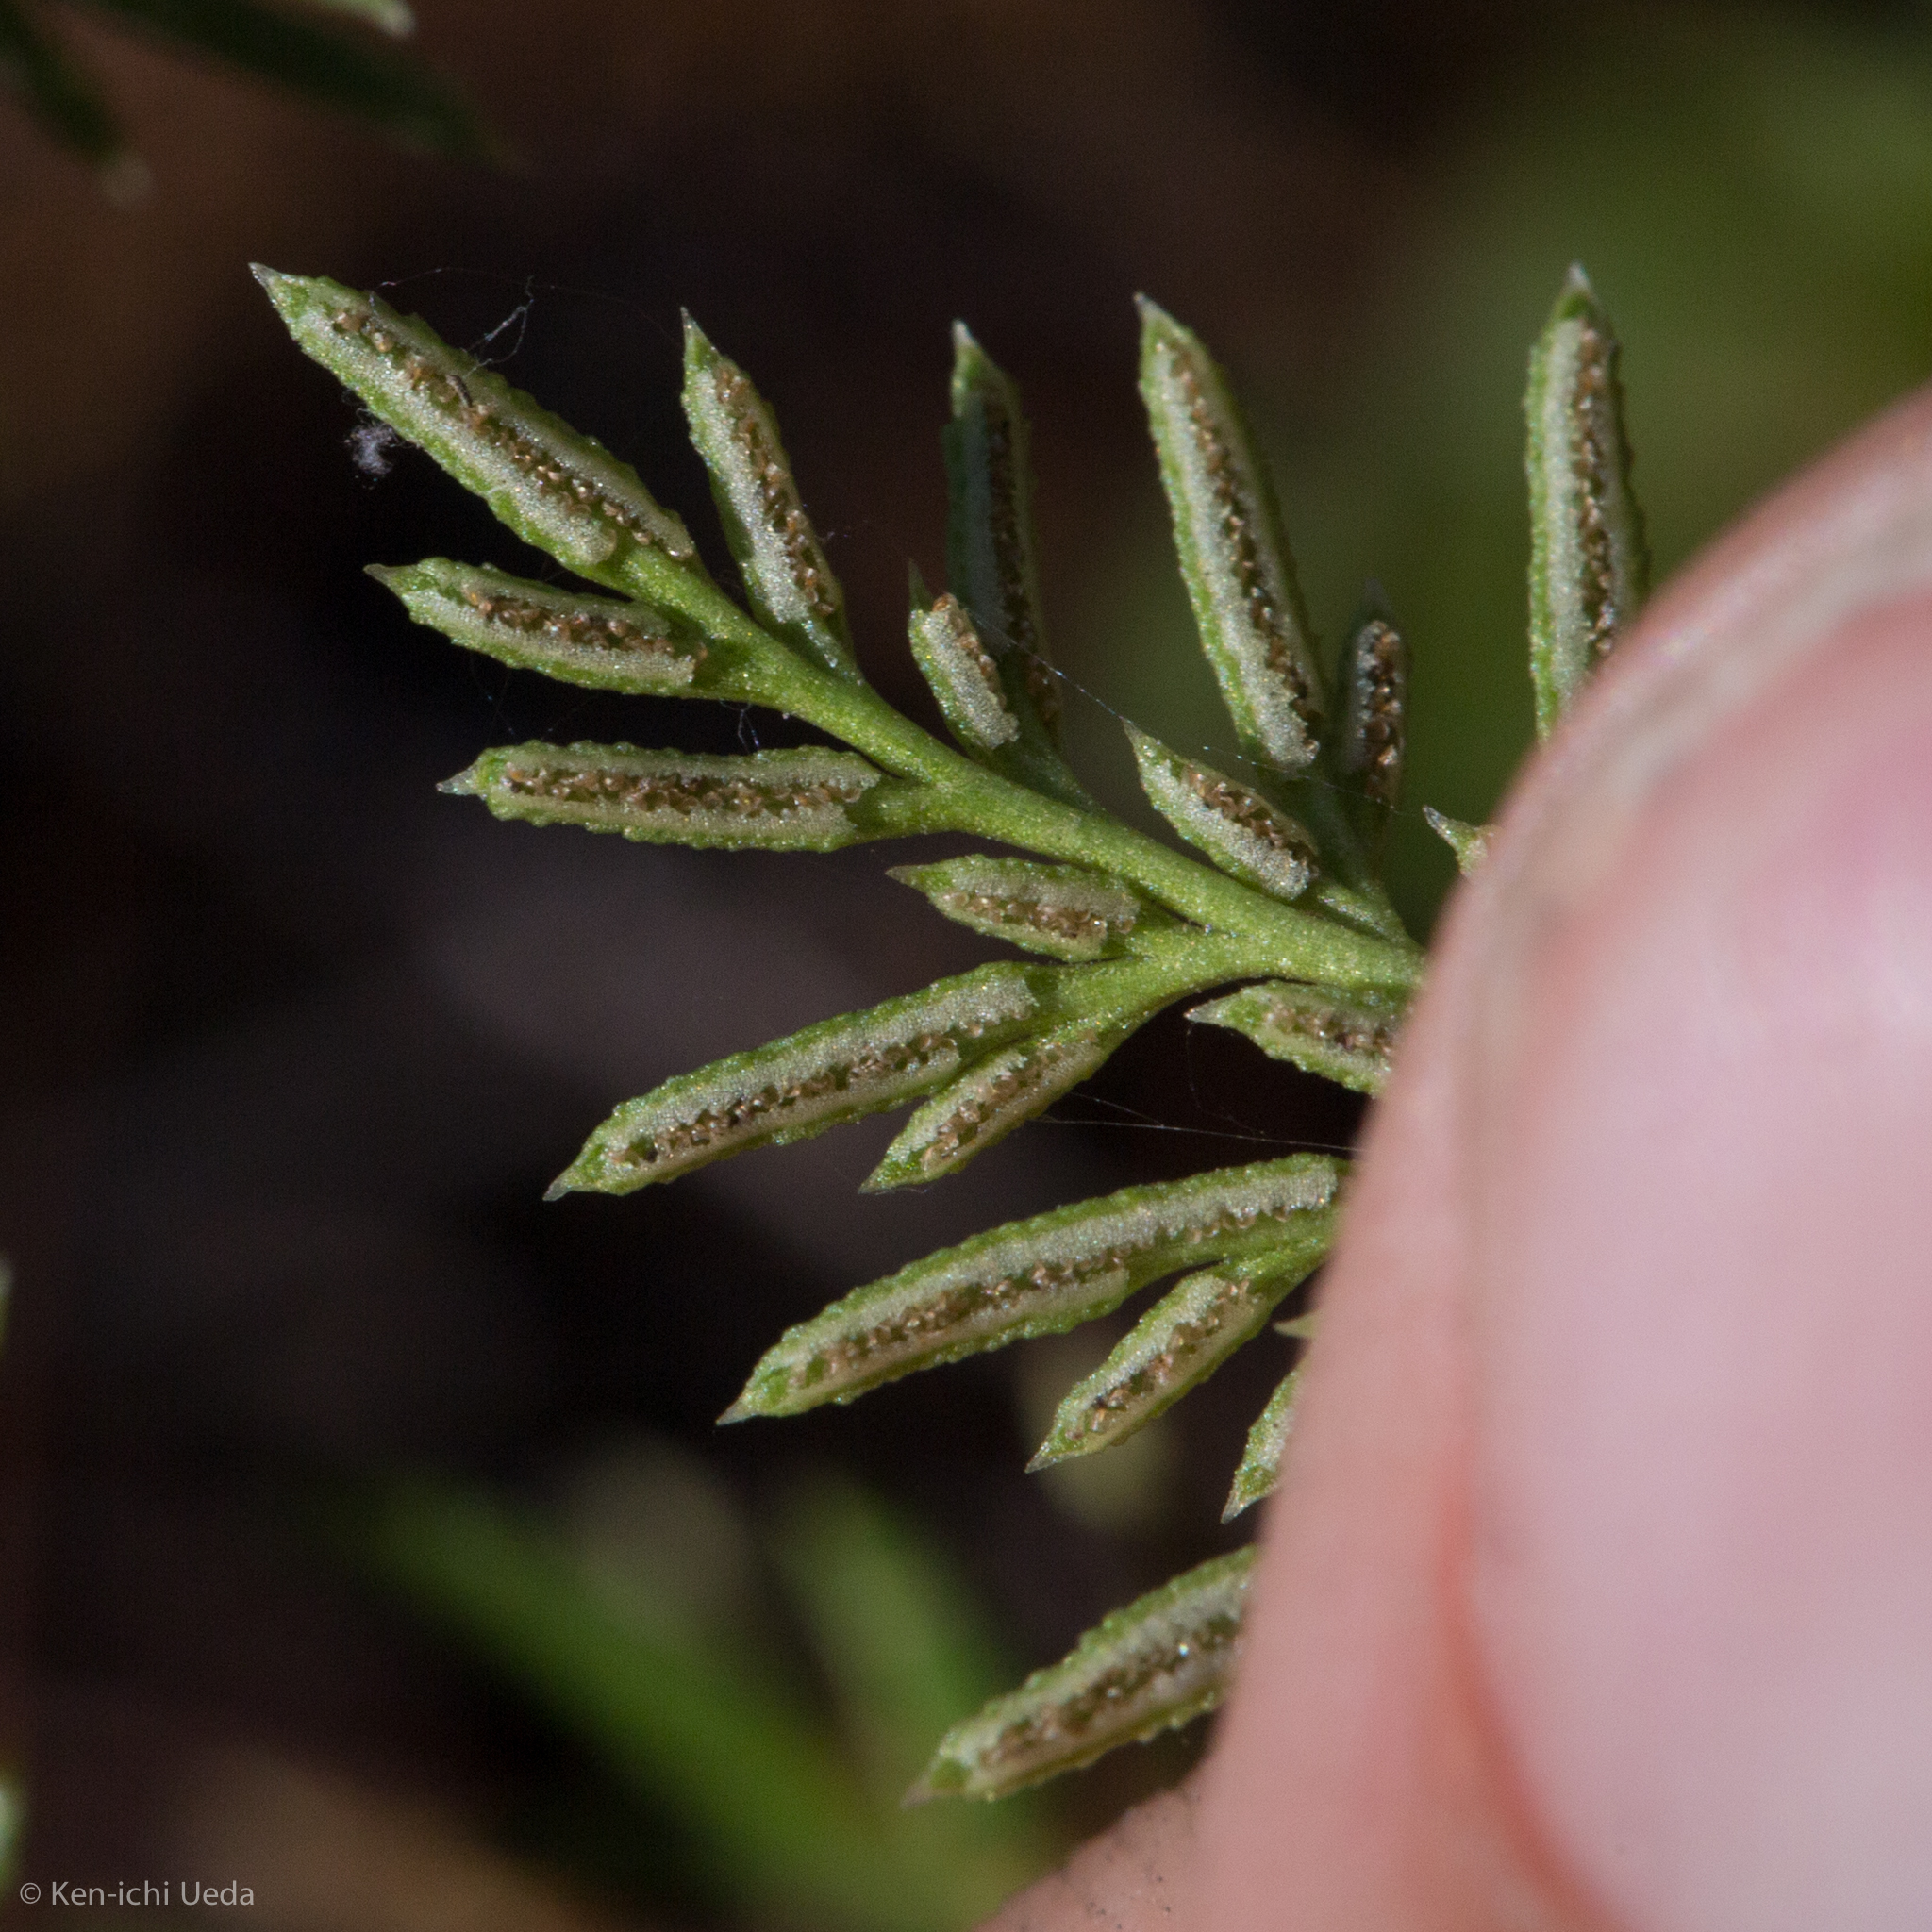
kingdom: Plantae
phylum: Tracheophyta
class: Polypodiopsida
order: Polypodiales
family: Pteridaceae
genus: Aspidotis
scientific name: Aspidotis densa
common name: Indian's dream
